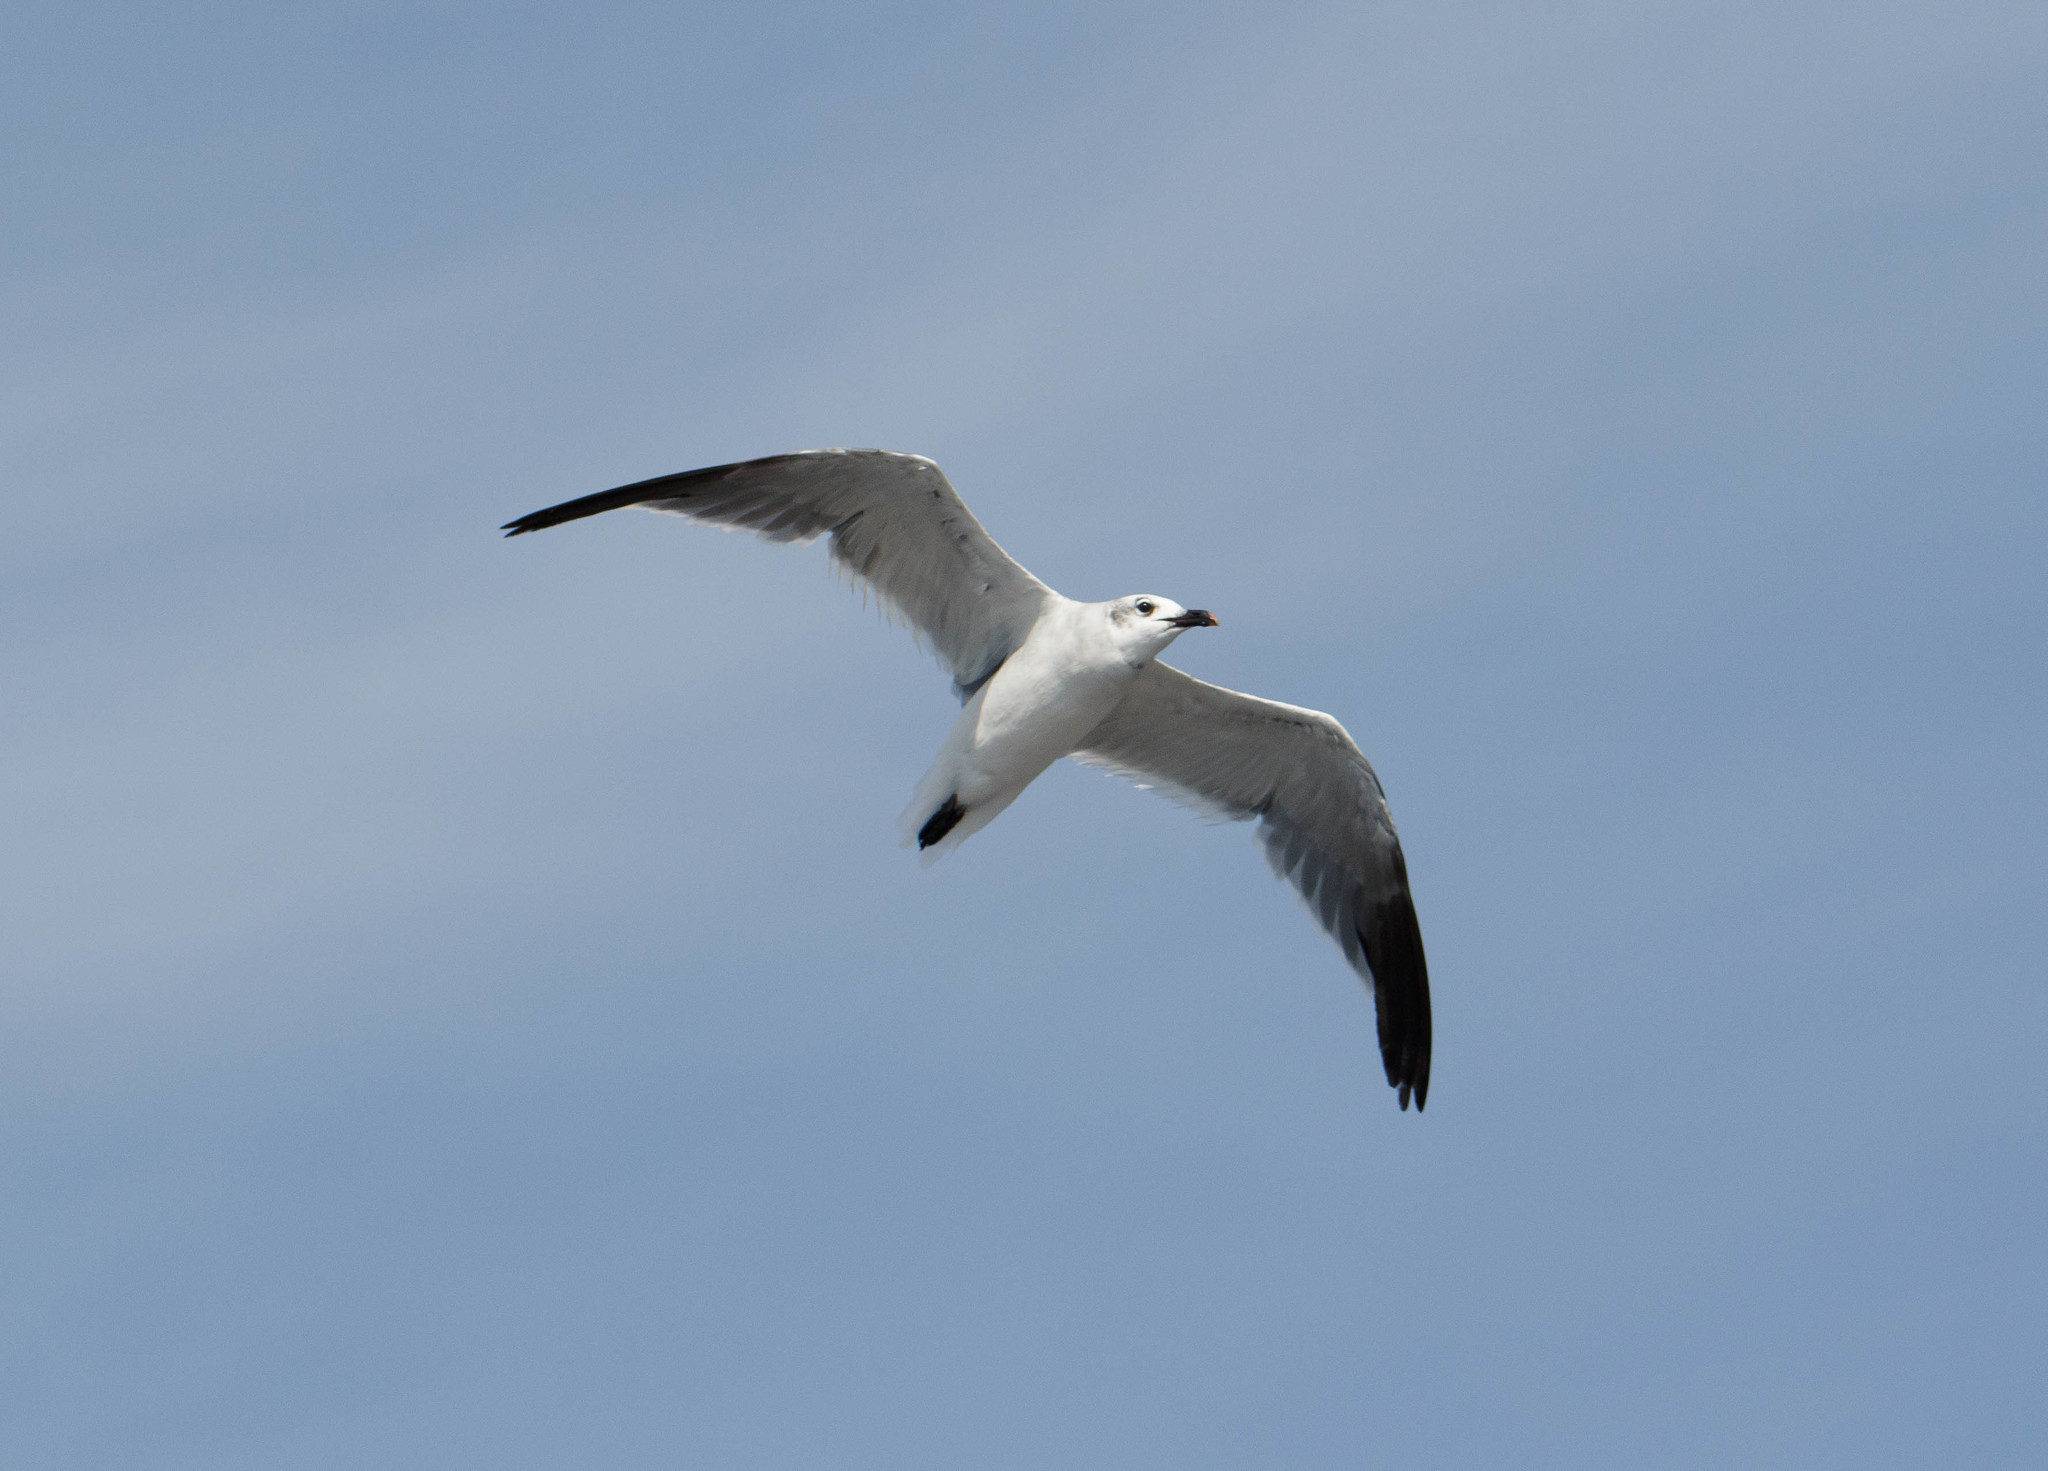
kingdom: Animalia
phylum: Chordata
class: Aves
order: Charadriiformes
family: Laridae
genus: Leucophaeus
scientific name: Leucophaeus atricilla
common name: Laughing gull
